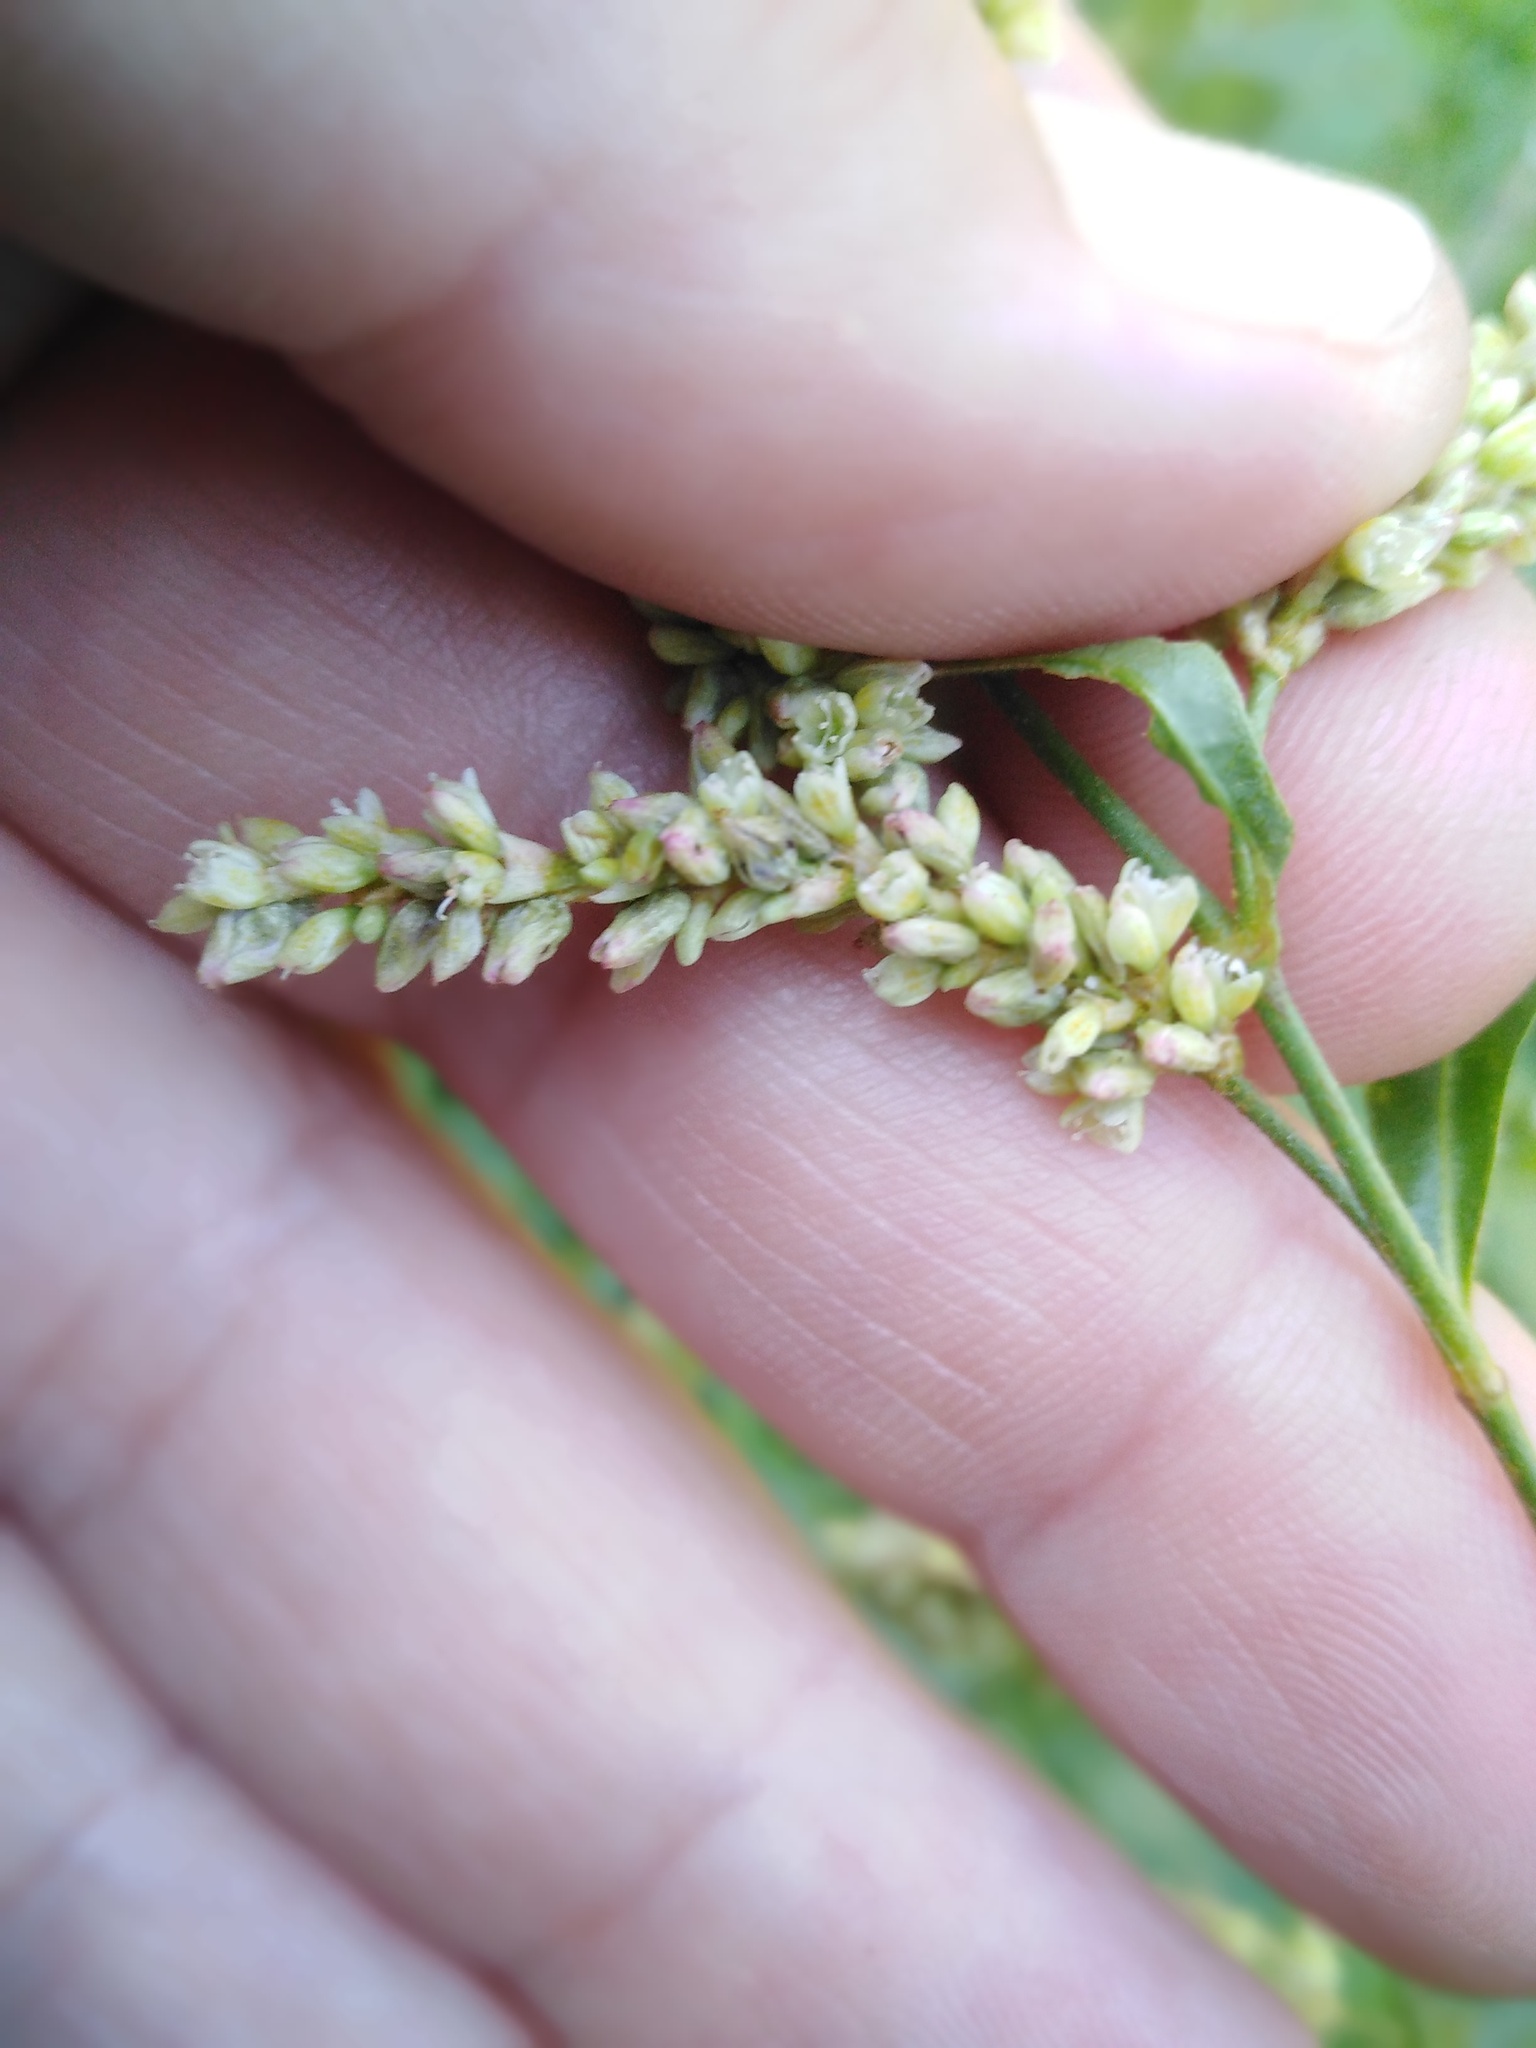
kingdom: Plantae
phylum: Tracheophyta
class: Magnoliopsida
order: Caryophyllales
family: Polygonaceae
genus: Persicaria
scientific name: Persicaria lapathifolia
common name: Curlytop knotweed
